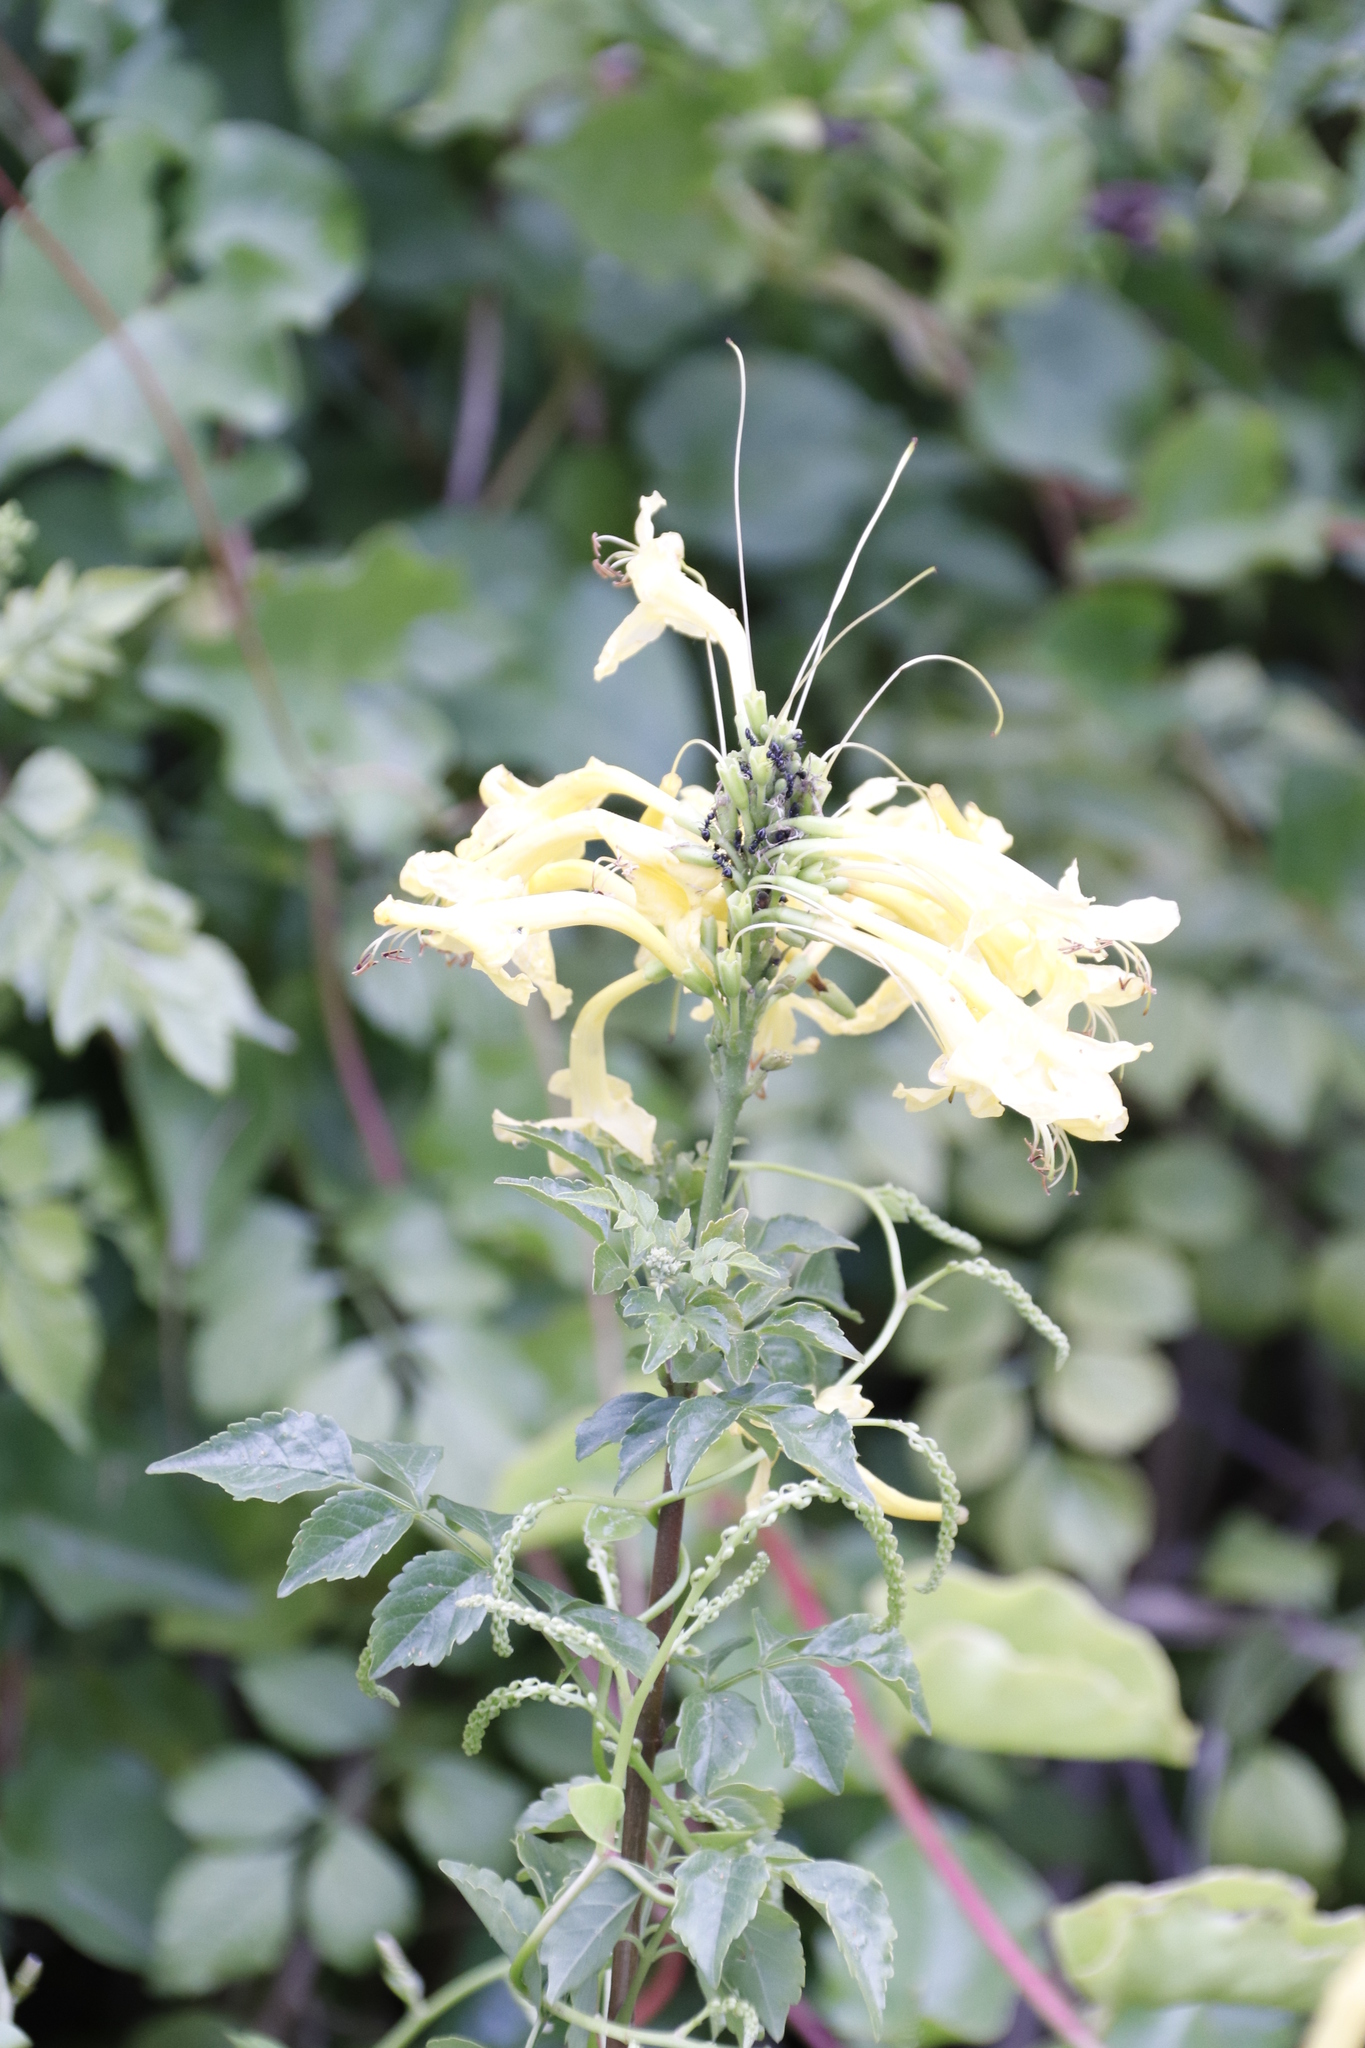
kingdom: Plantae
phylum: Tracheophyta
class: Magnoliopsida
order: Lamiales
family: Bignoniaceae
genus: Tecomaria
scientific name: Tecomaria capensis
